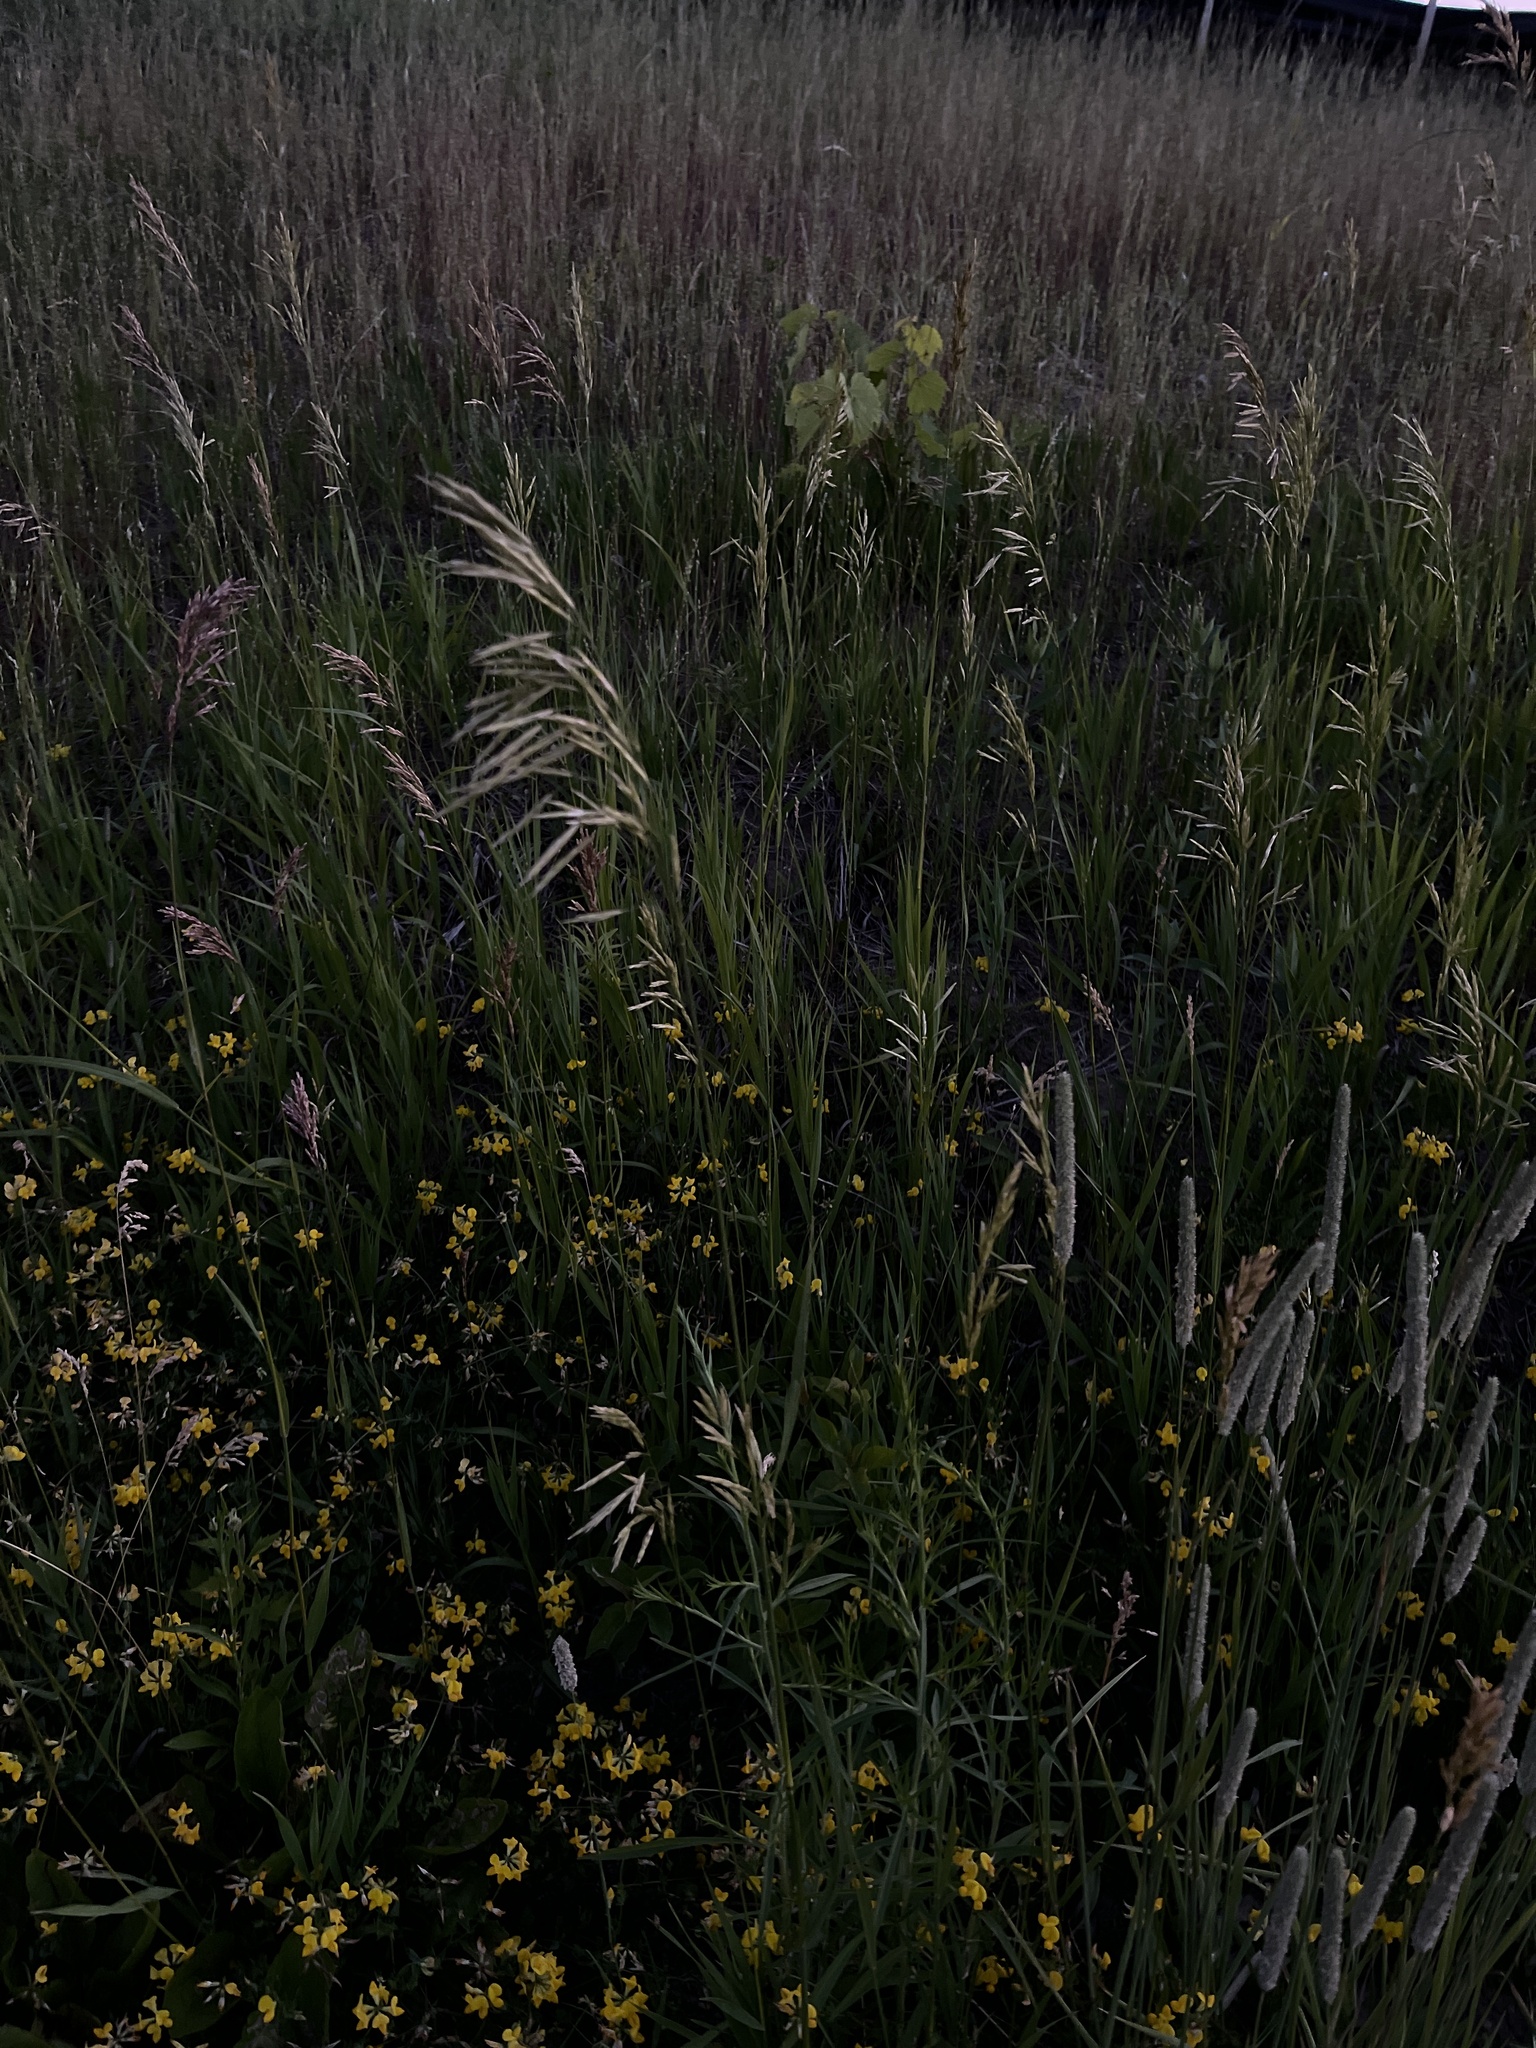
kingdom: Plantae
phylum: Tracheophyta
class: Liliopsida
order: Poales
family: Poaceae
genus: Bromus
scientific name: Bromus inermis
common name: Smooth brome
